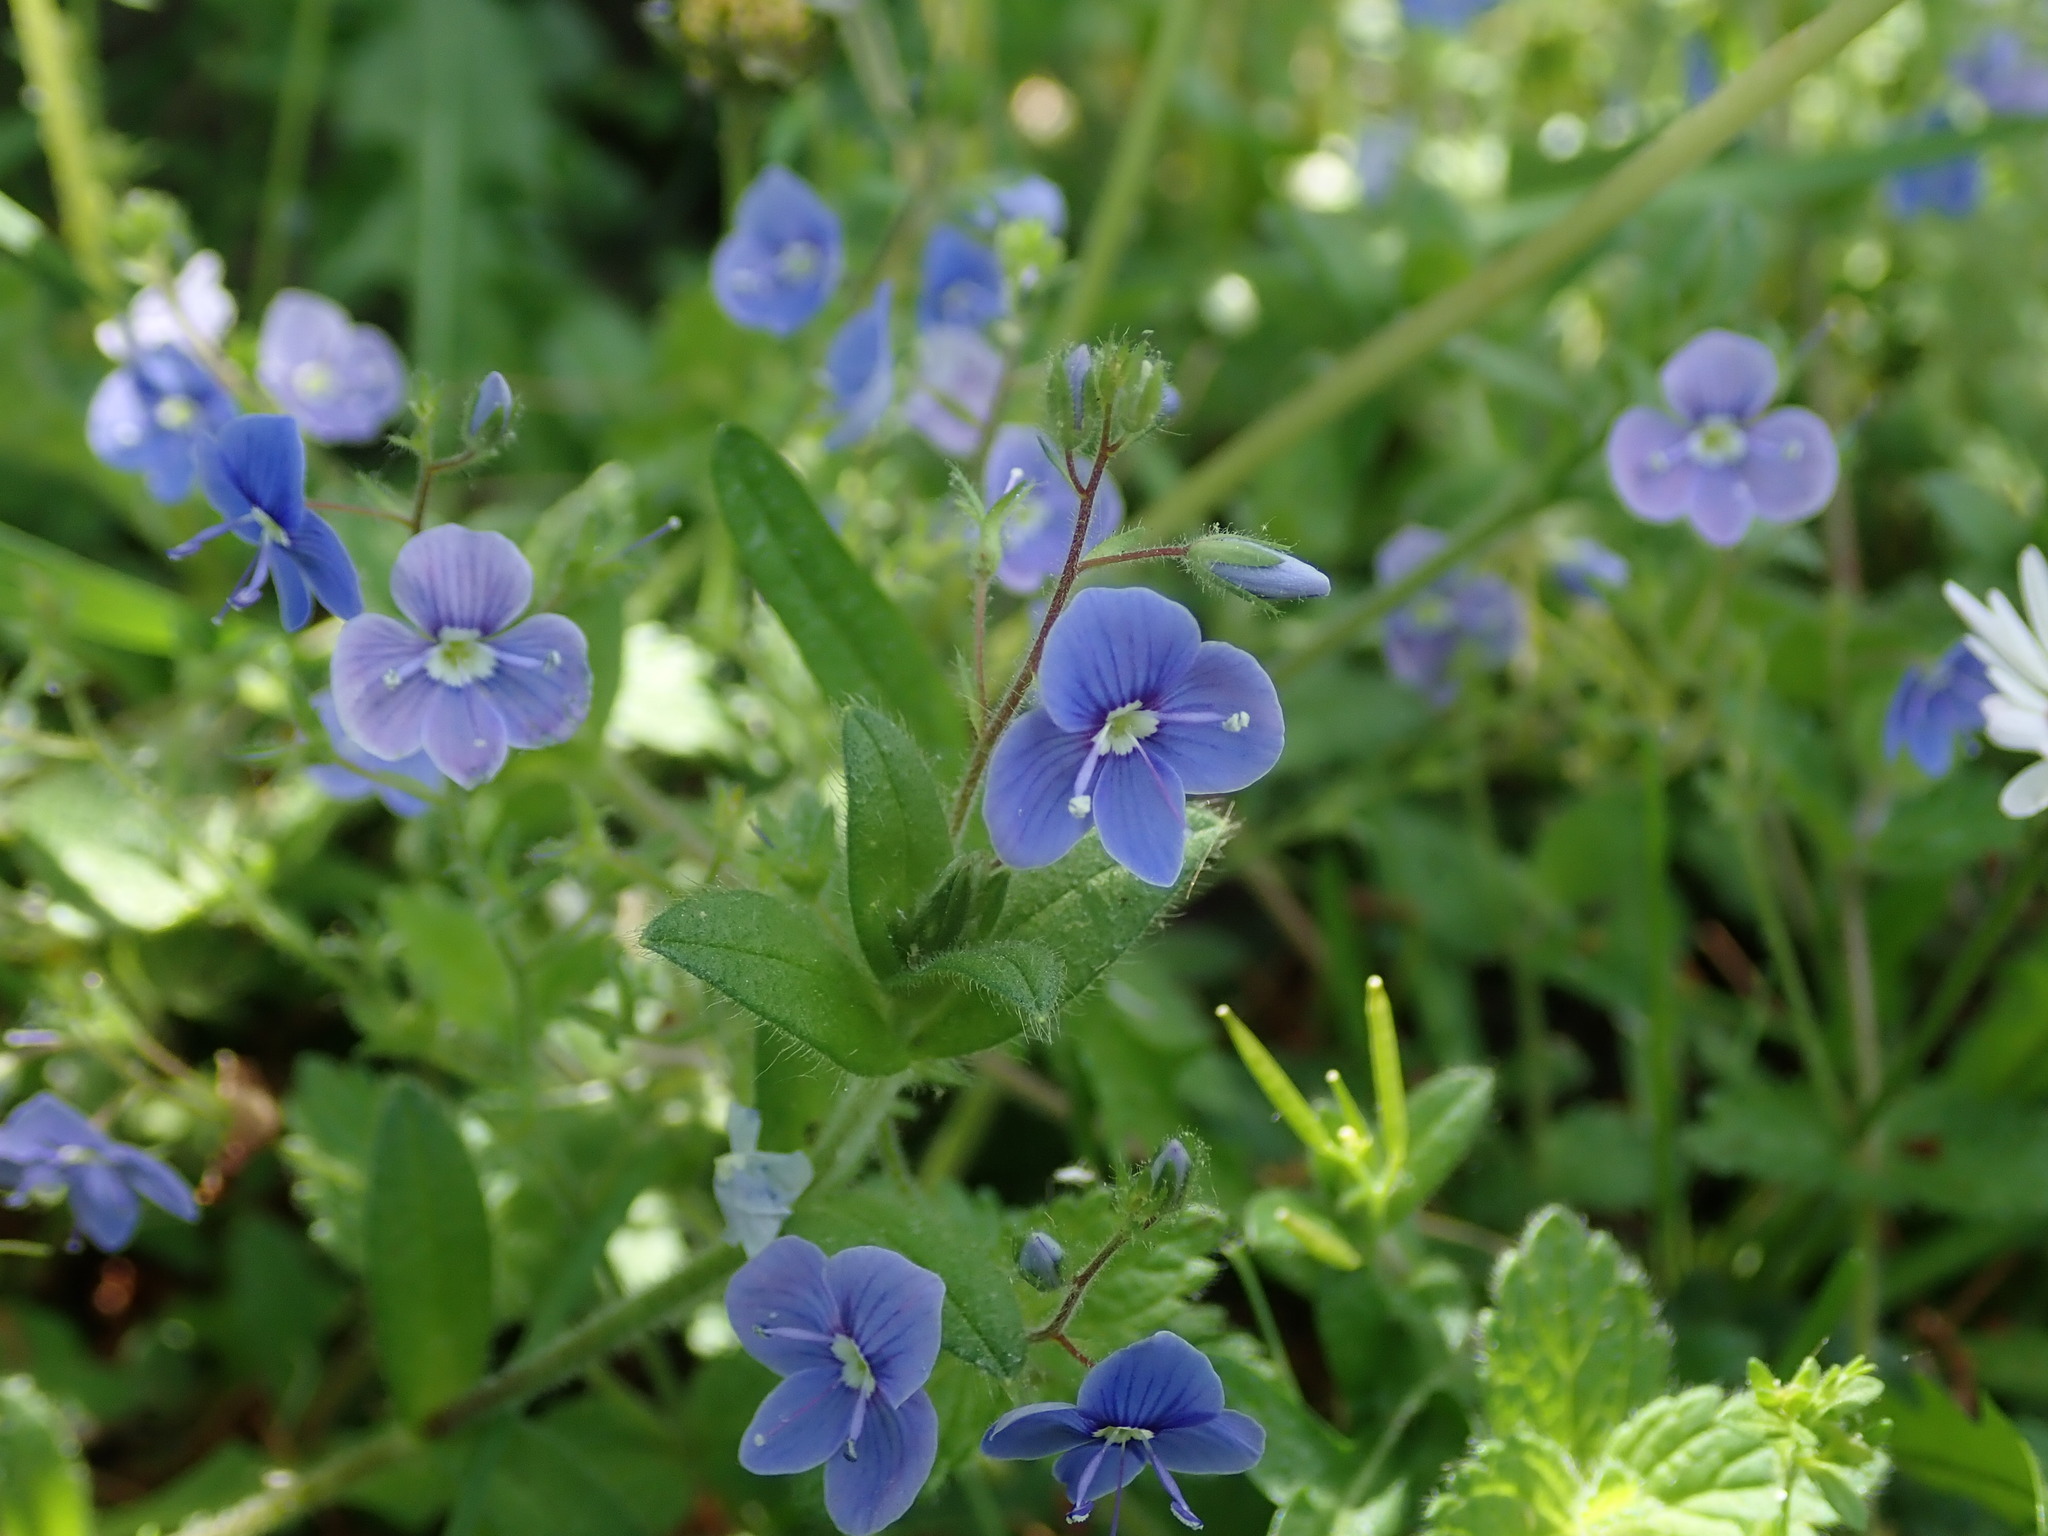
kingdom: Plantae
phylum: Tracheophyta
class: Magnoliopsida
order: Lamiales
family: Plantaginaceae
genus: Veronica
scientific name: Veronica chamaedrys
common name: Germander speedwell
